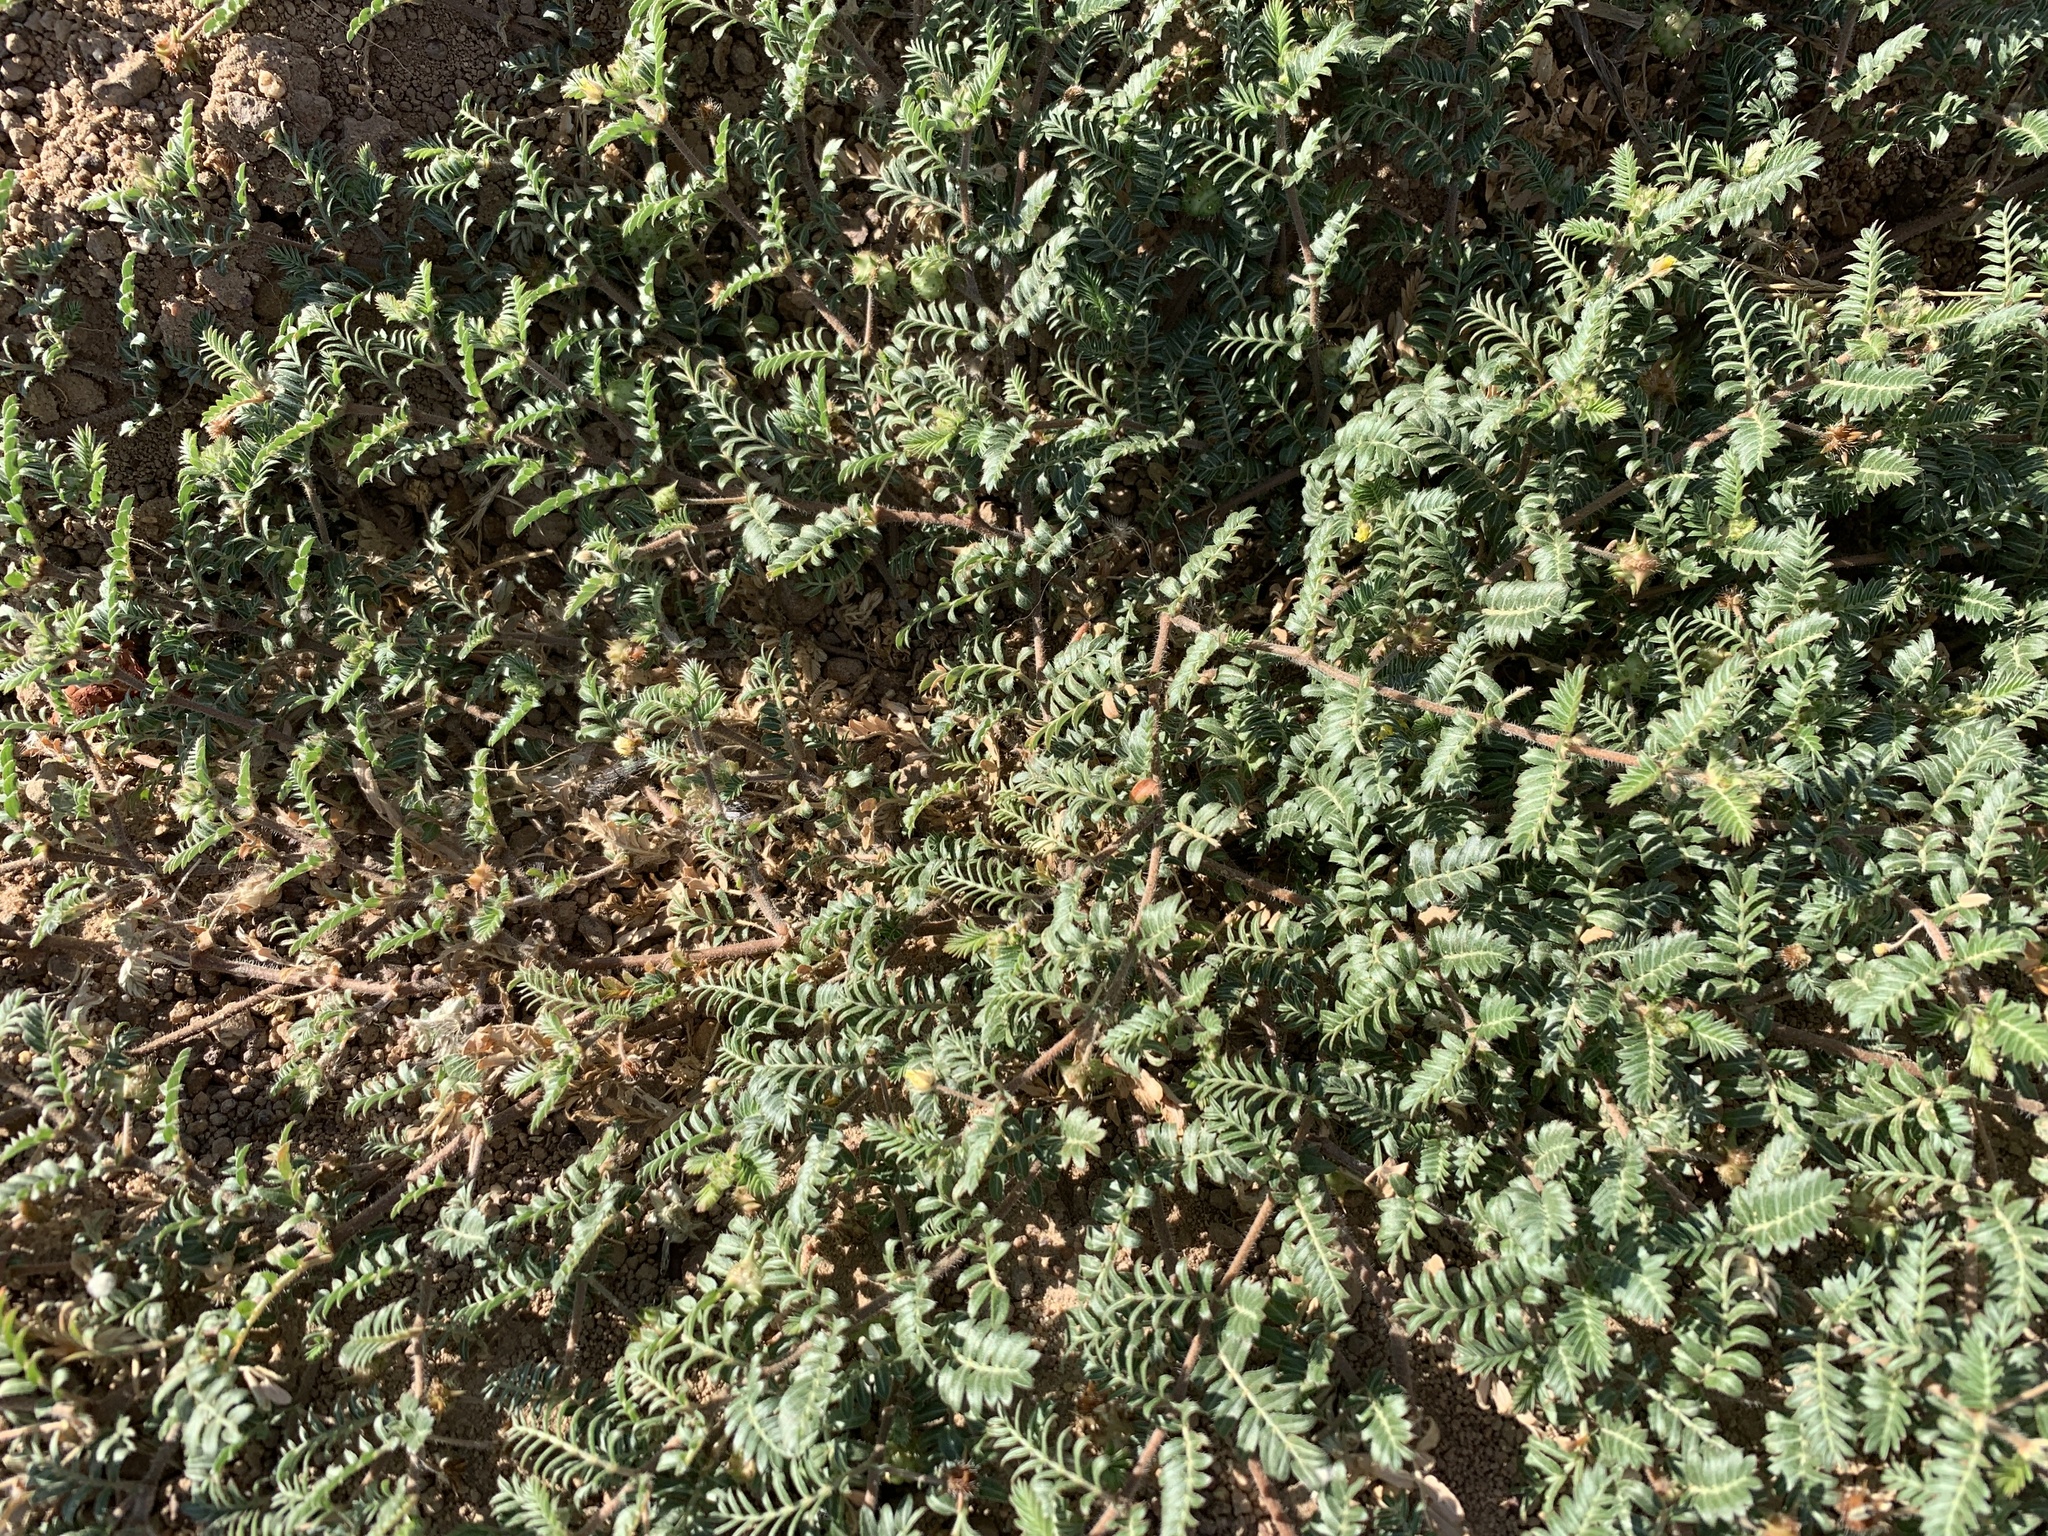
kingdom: Plantae
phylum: Tracheophyta
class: Magnoliopsida
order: Zygophyllales
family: Zygophyllaceae
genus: Tribulus
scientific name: Tribulus terrestris
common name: Puncturevine
